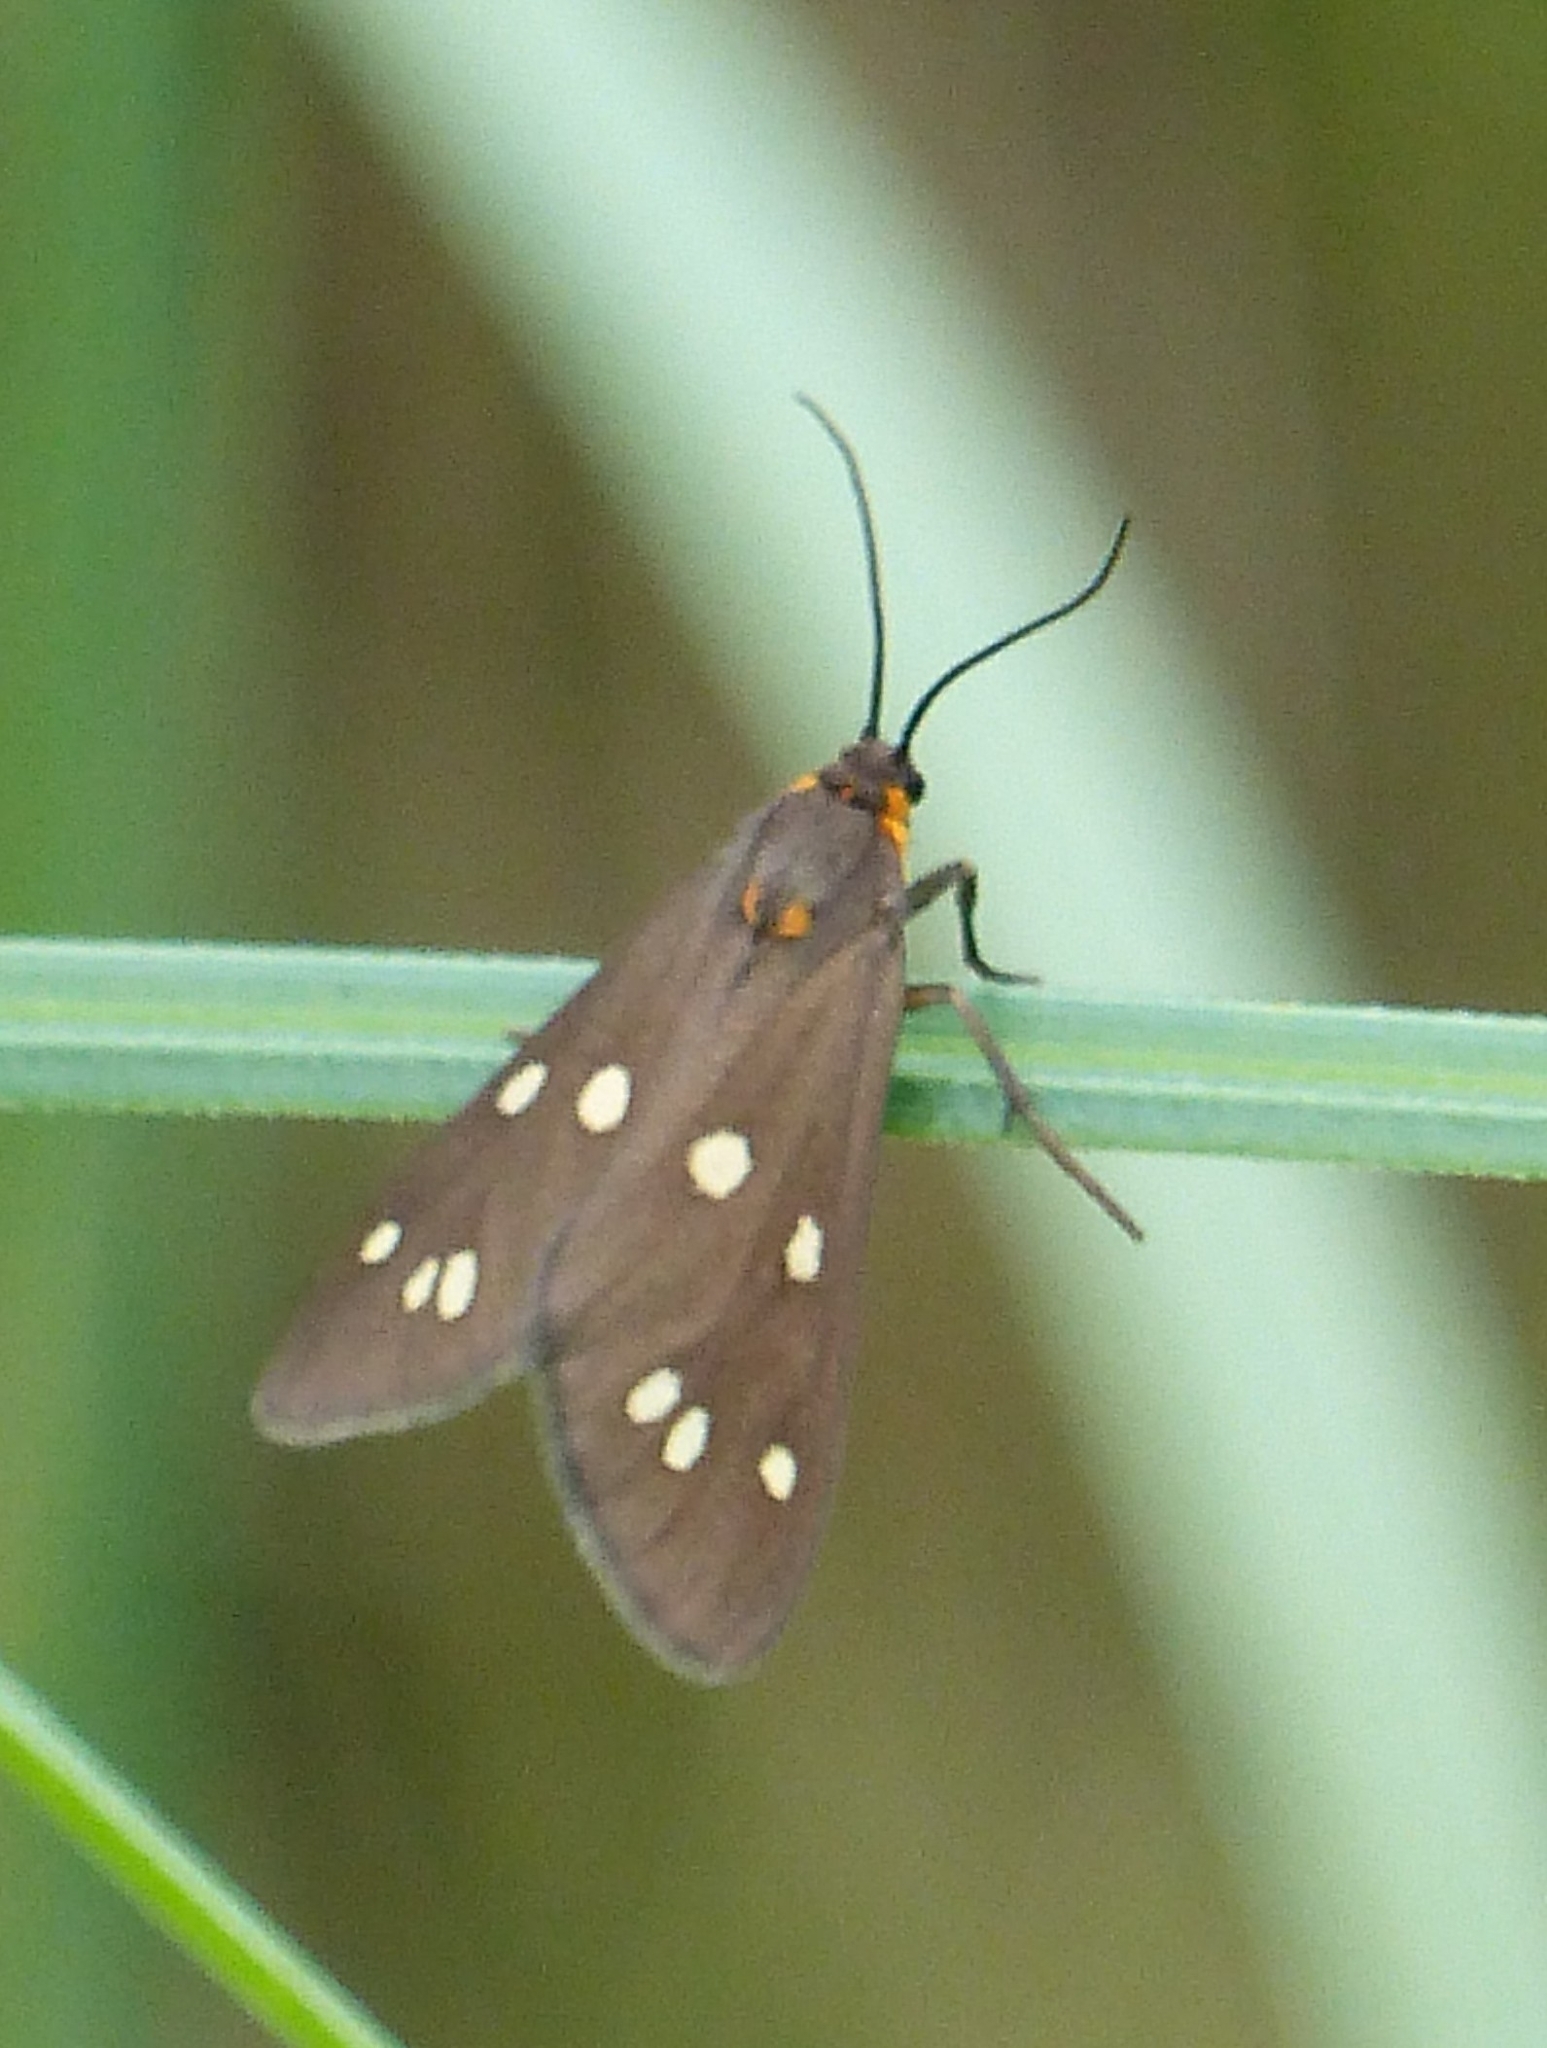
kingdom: Animalia
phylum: Arthropoda
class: Insecta
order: Lepidoptera
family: Erebidae
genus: Dysauxes
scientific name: Dysauxes punctata
